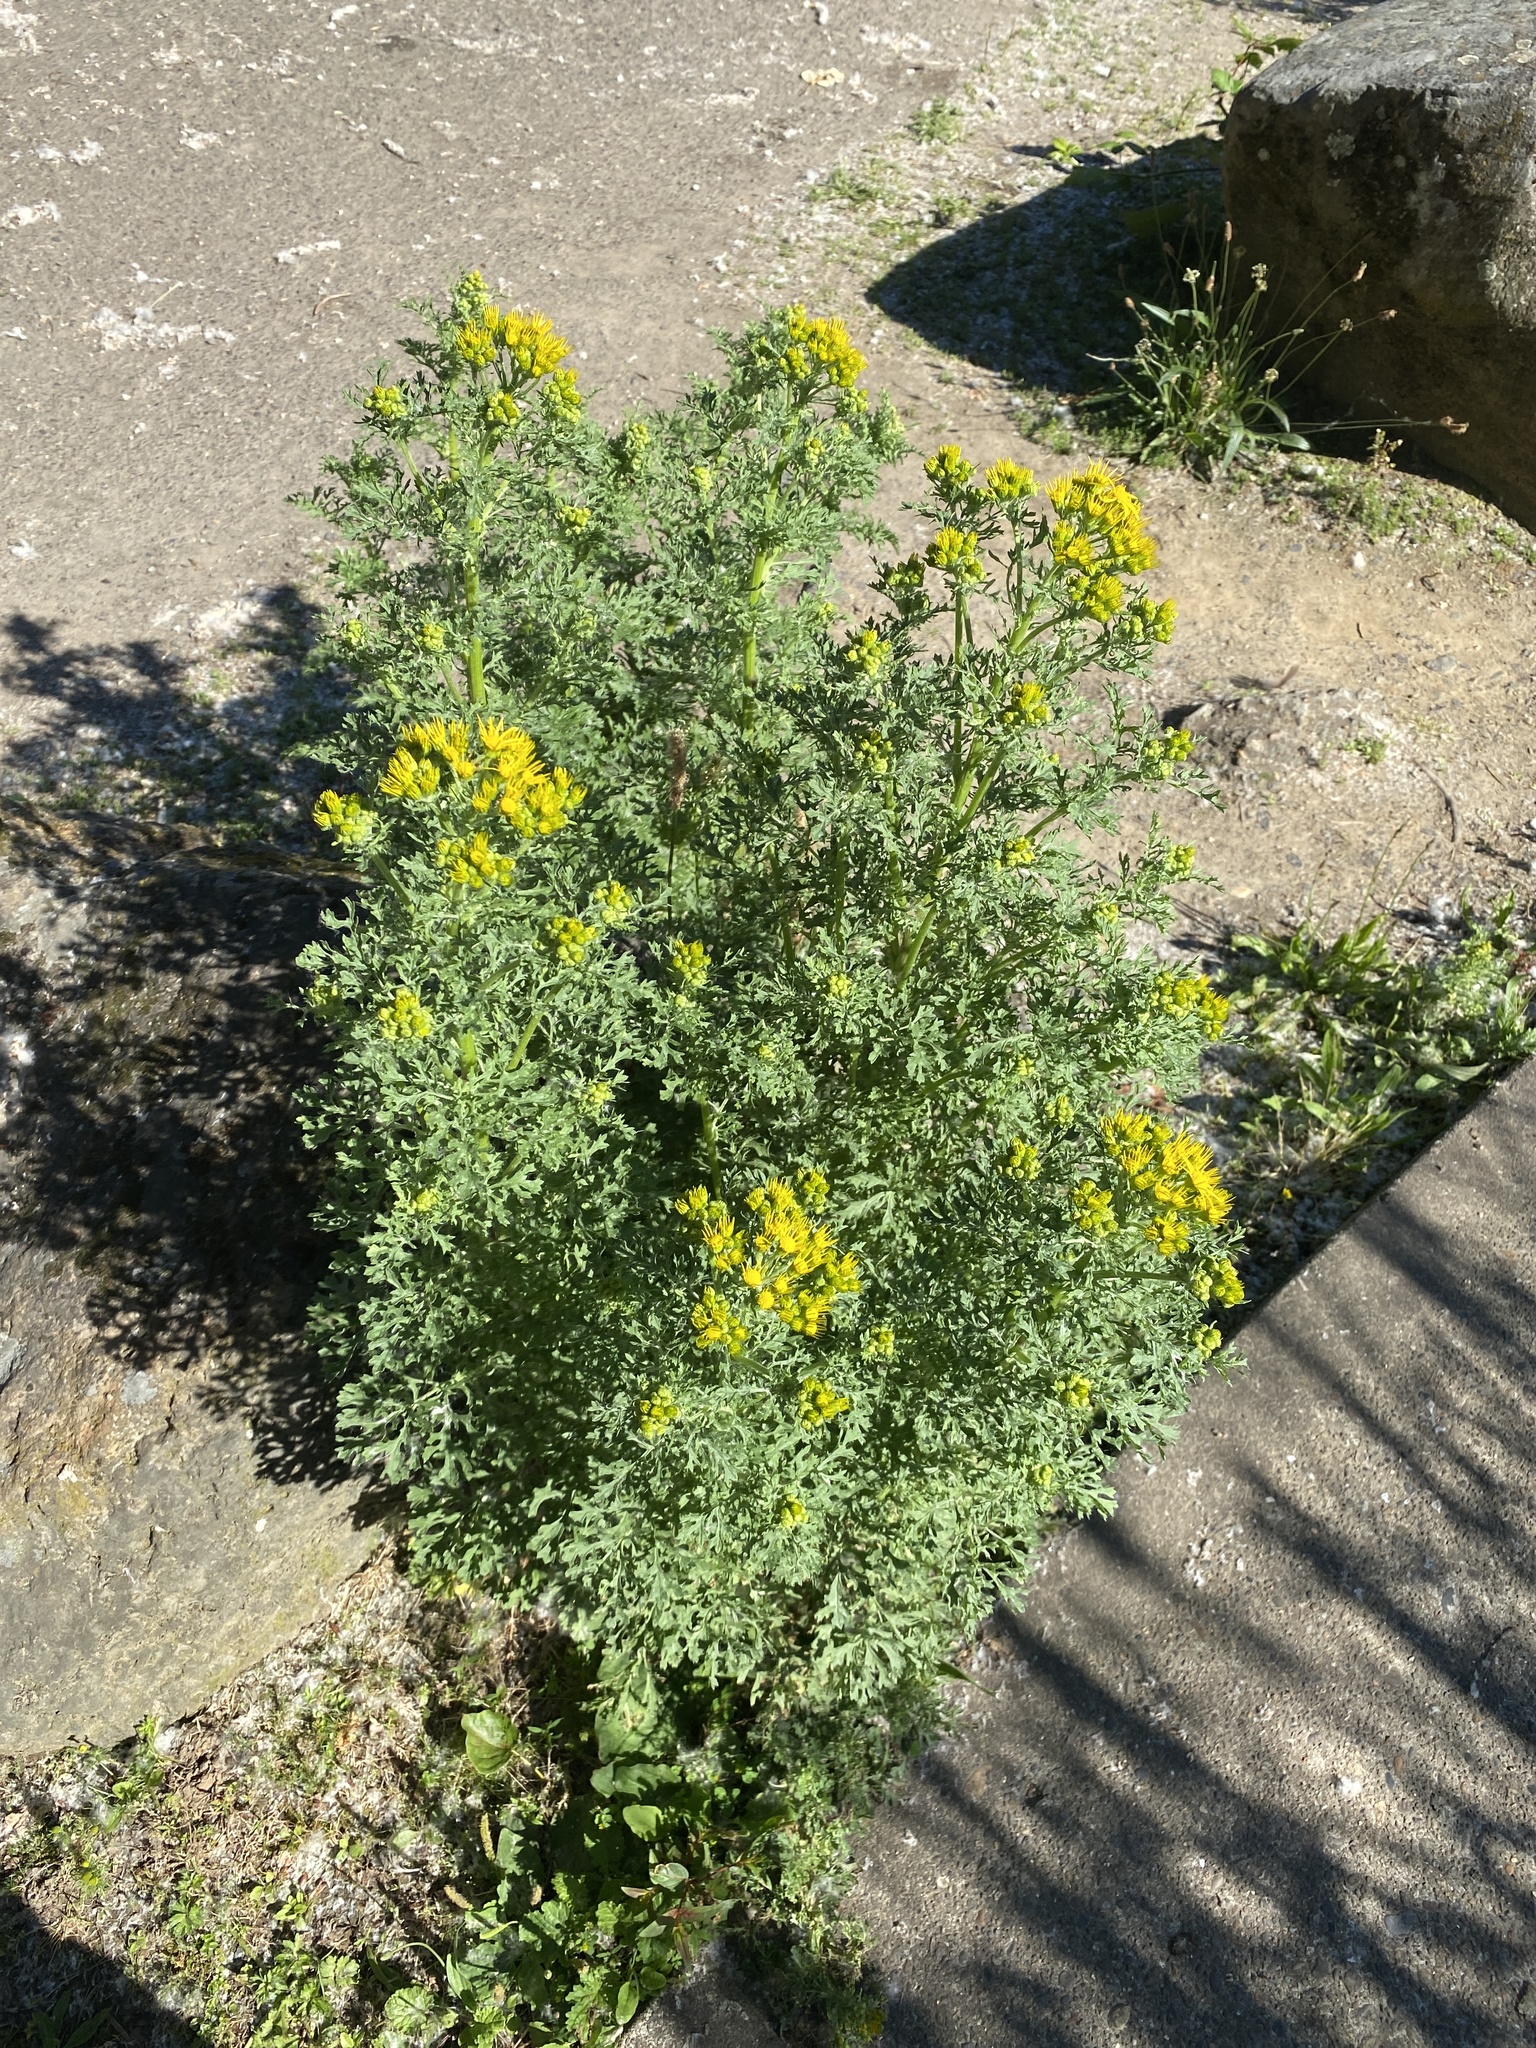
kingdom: Plantae
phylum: Tracheophyta
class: Magnoliopsida
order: Asterales
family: Asteraceae
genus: Jacobaea
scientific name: Jacobaea vulgaris
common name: Stinking willie
